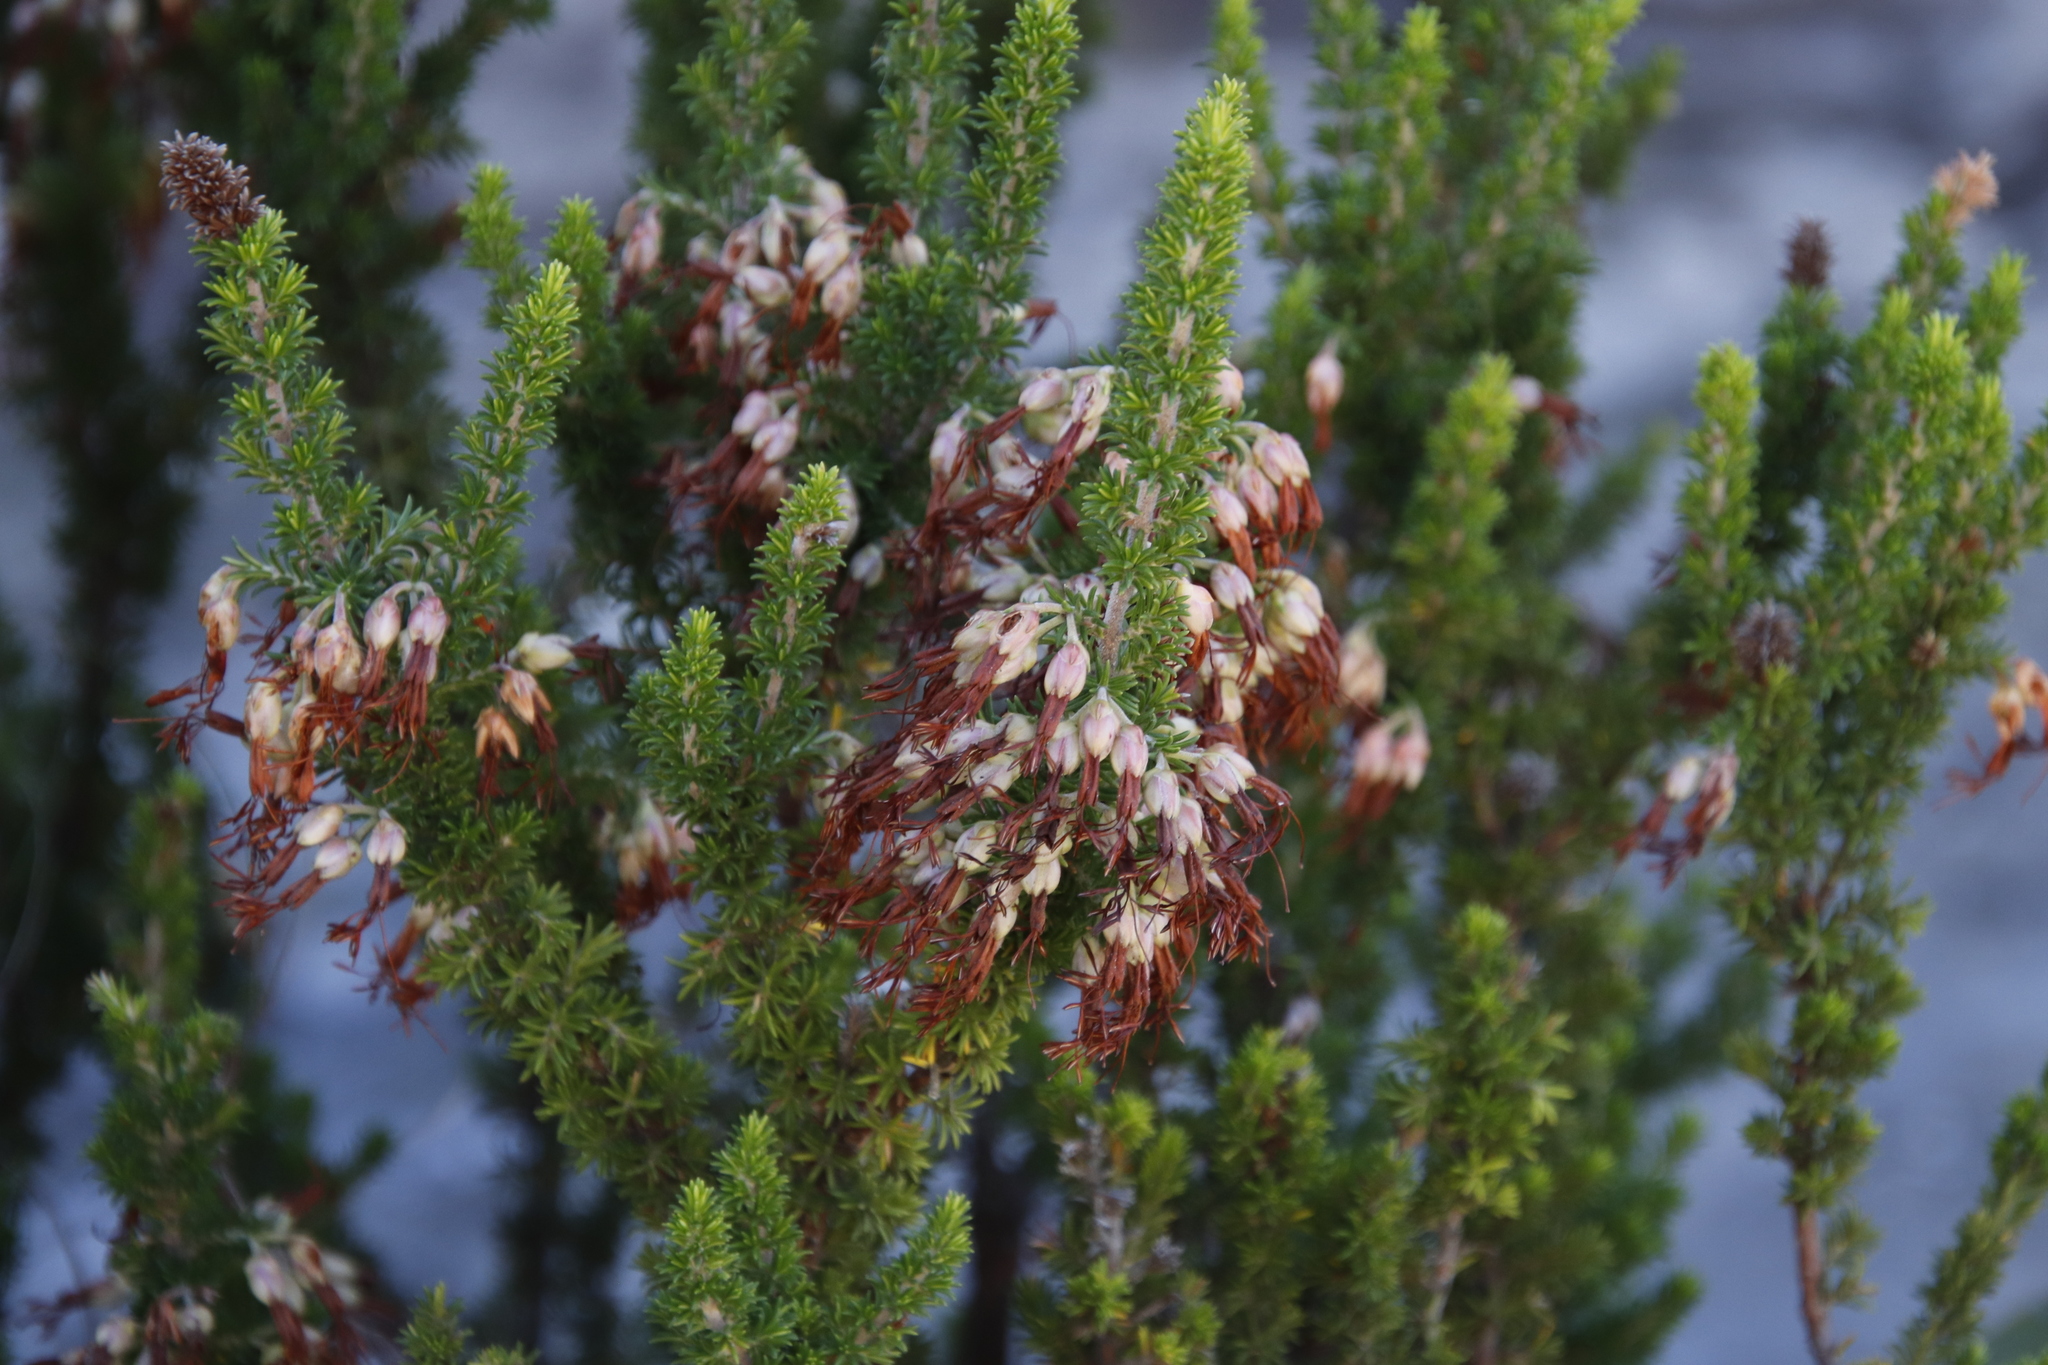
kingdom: Plantae
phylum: Tracheophyta
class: Magnoliopsida
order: Ericales
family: Ericaceae
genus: Erica
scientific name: Erica coccinea
